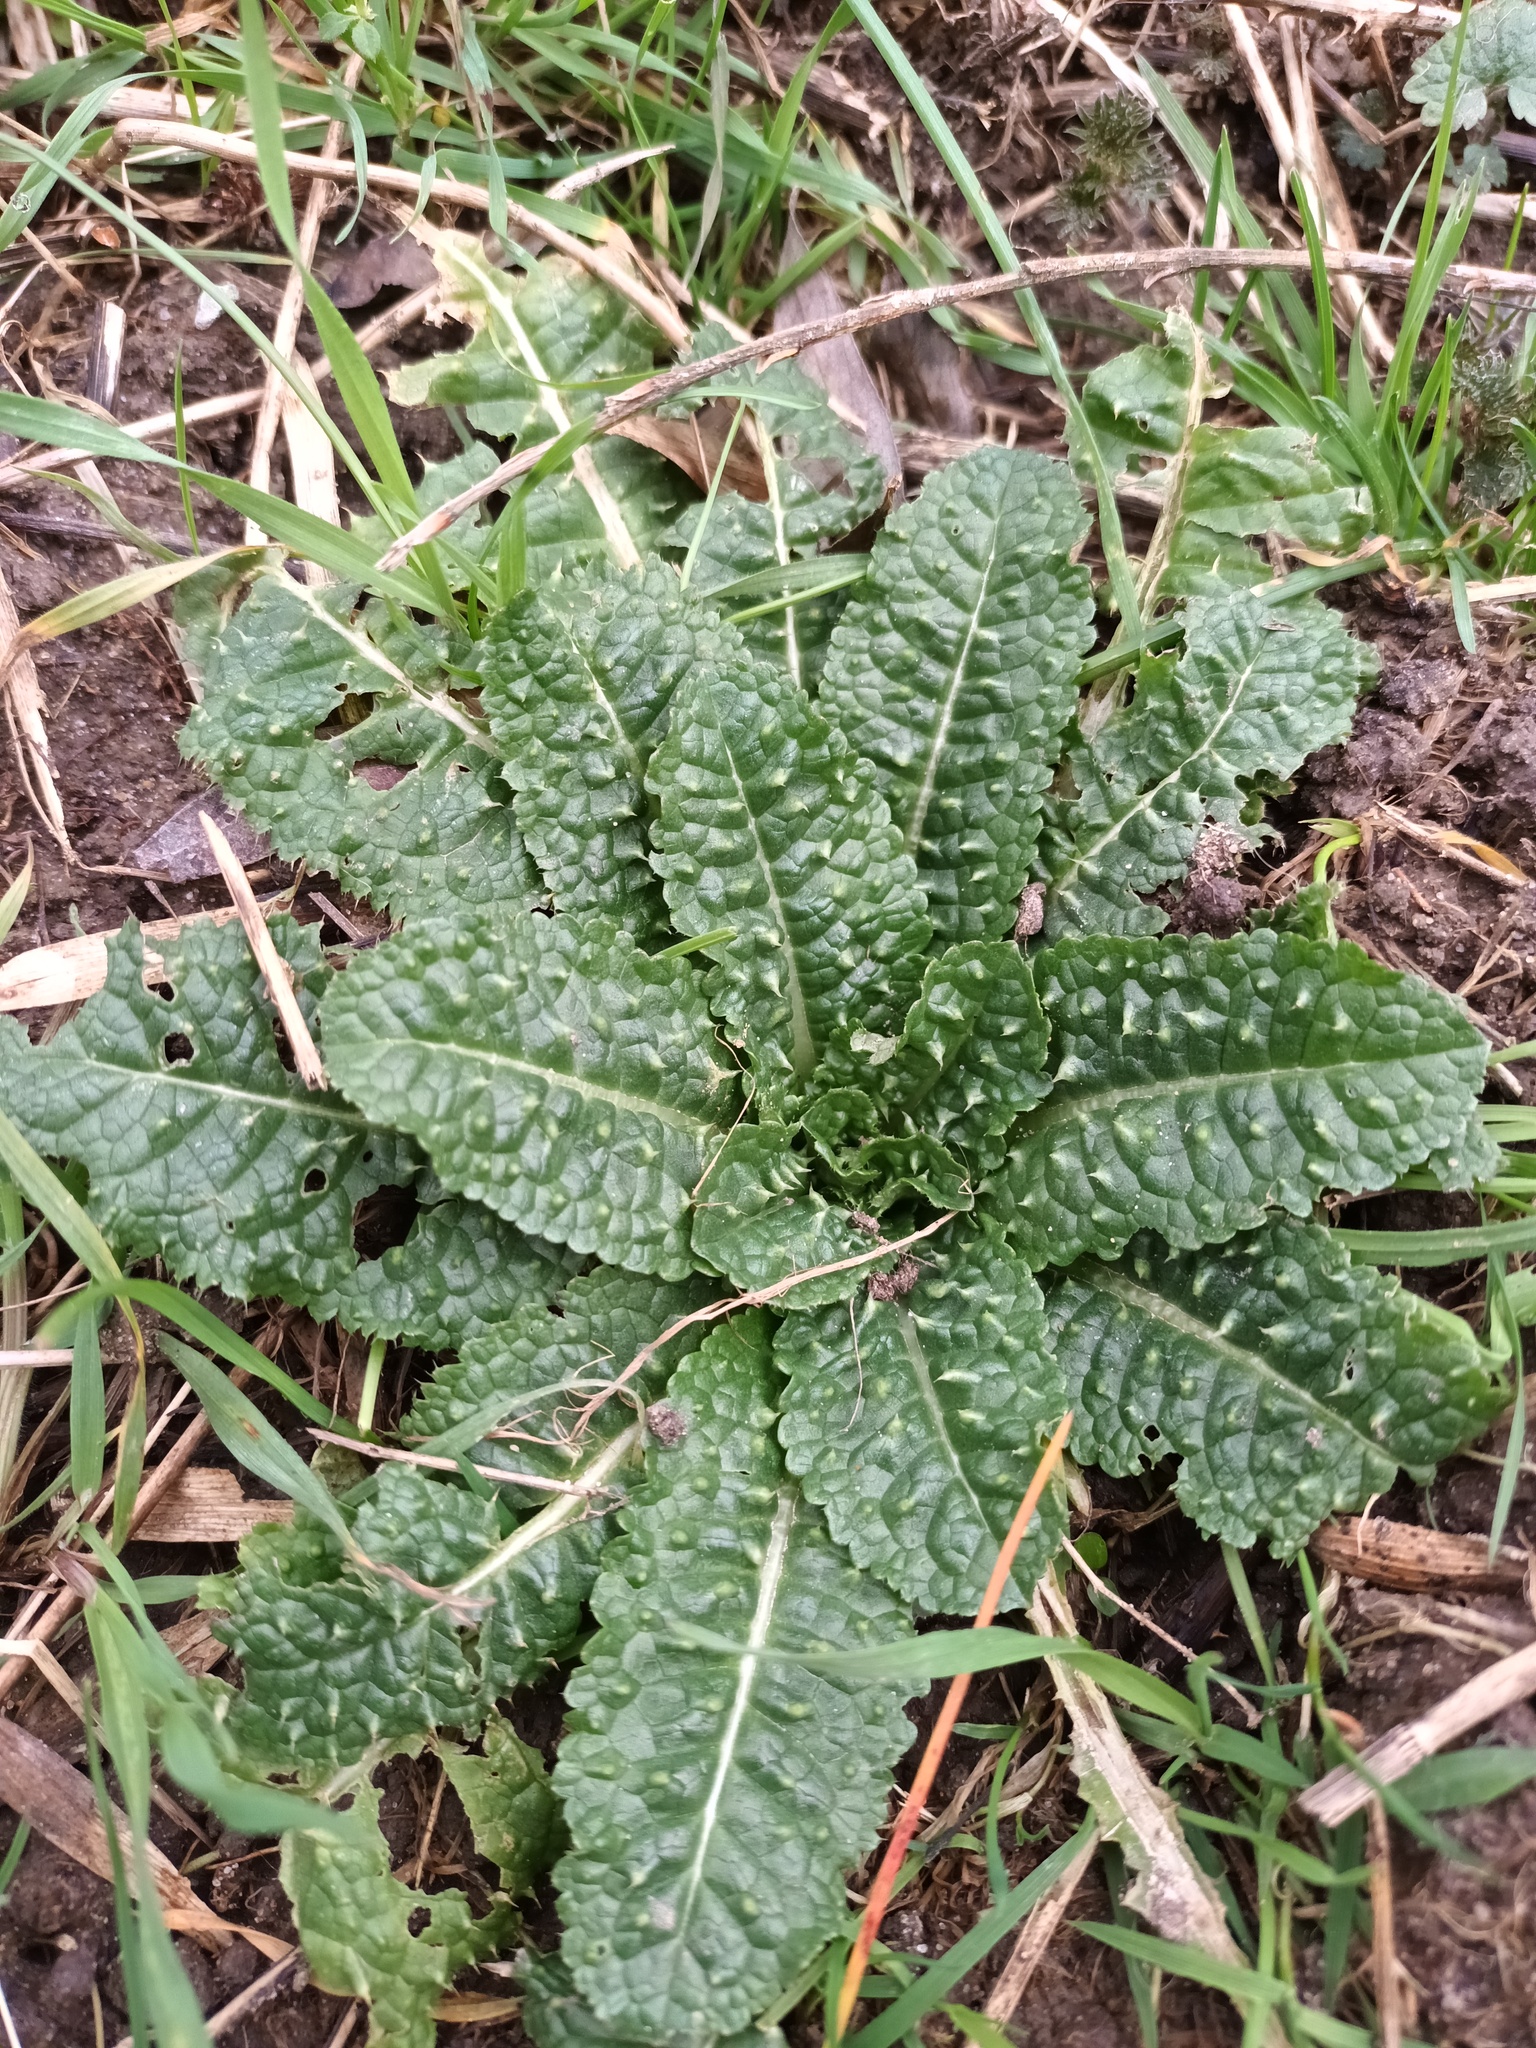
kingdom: Plantae
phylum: Tracheophyta
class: Magnoliopsida
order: Dipsacales
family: Caprifoliaceae
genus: Dipsacus
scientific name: Dipsacus fullonum
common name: Teasel
